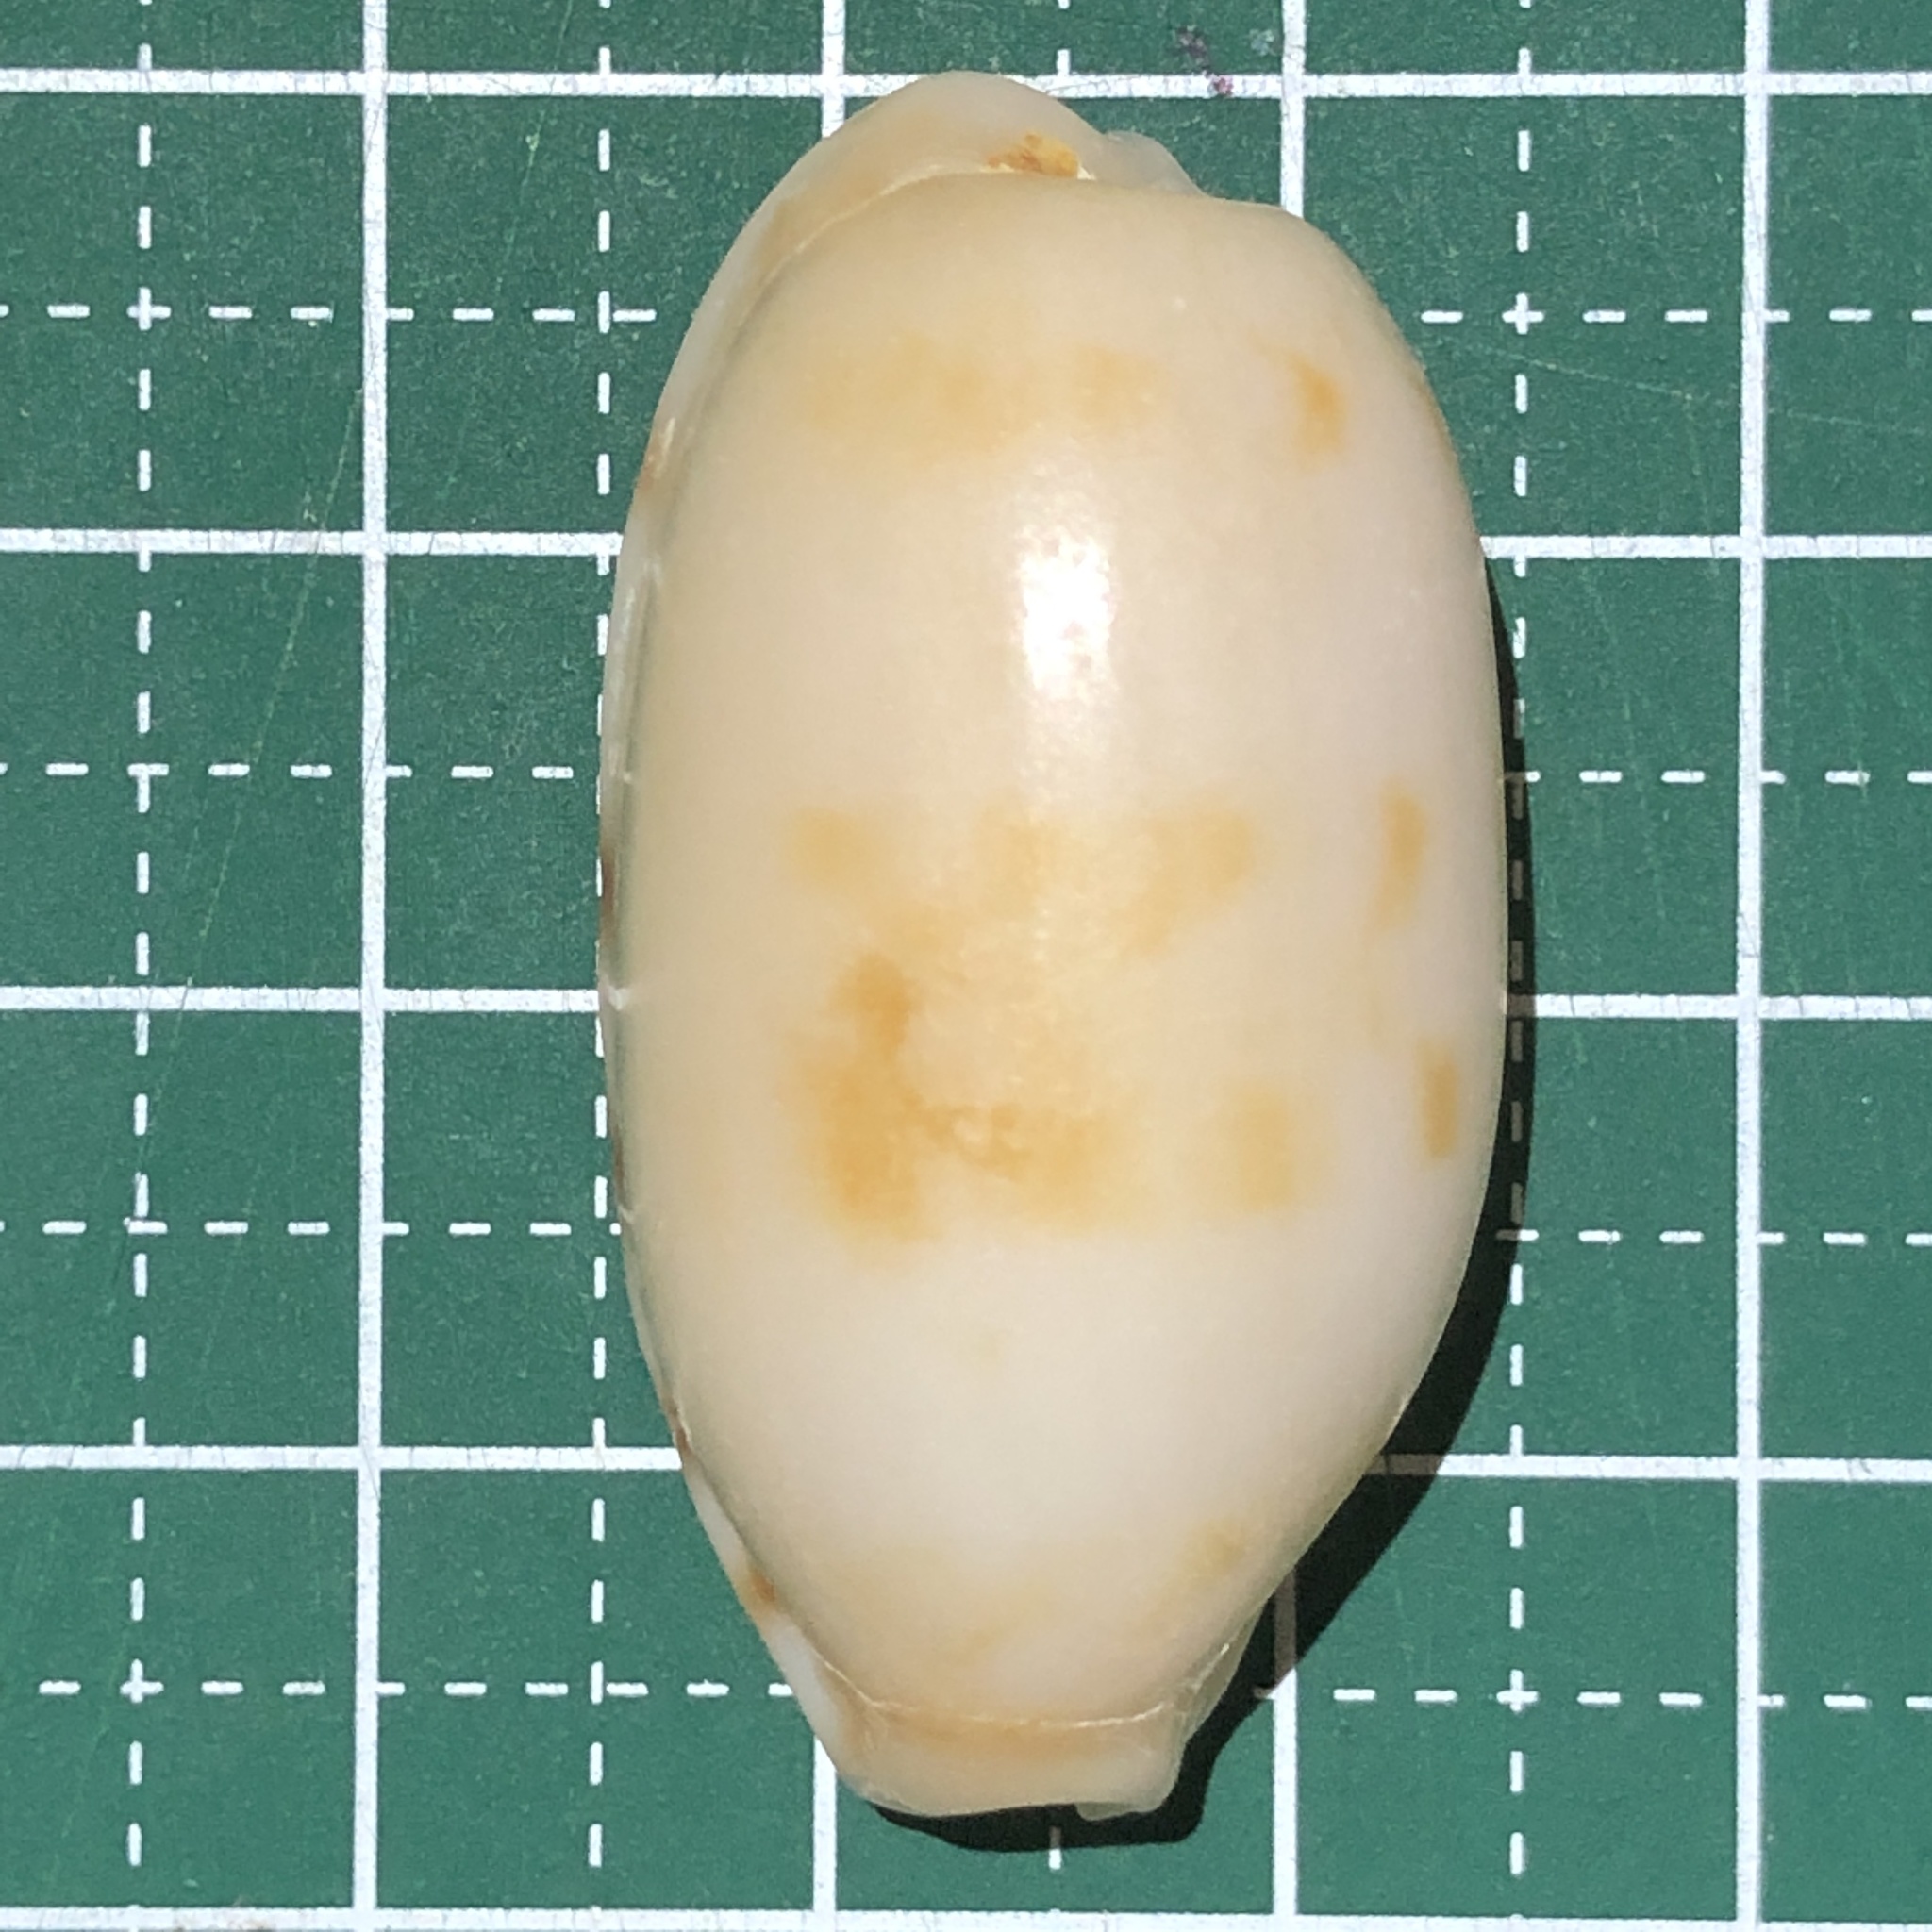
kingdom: Animalia
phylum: Mollusca
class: Gastropoda
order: Littorinimorpha
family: Cypraeidae
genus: Talostolida
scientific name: Talostolida teres
